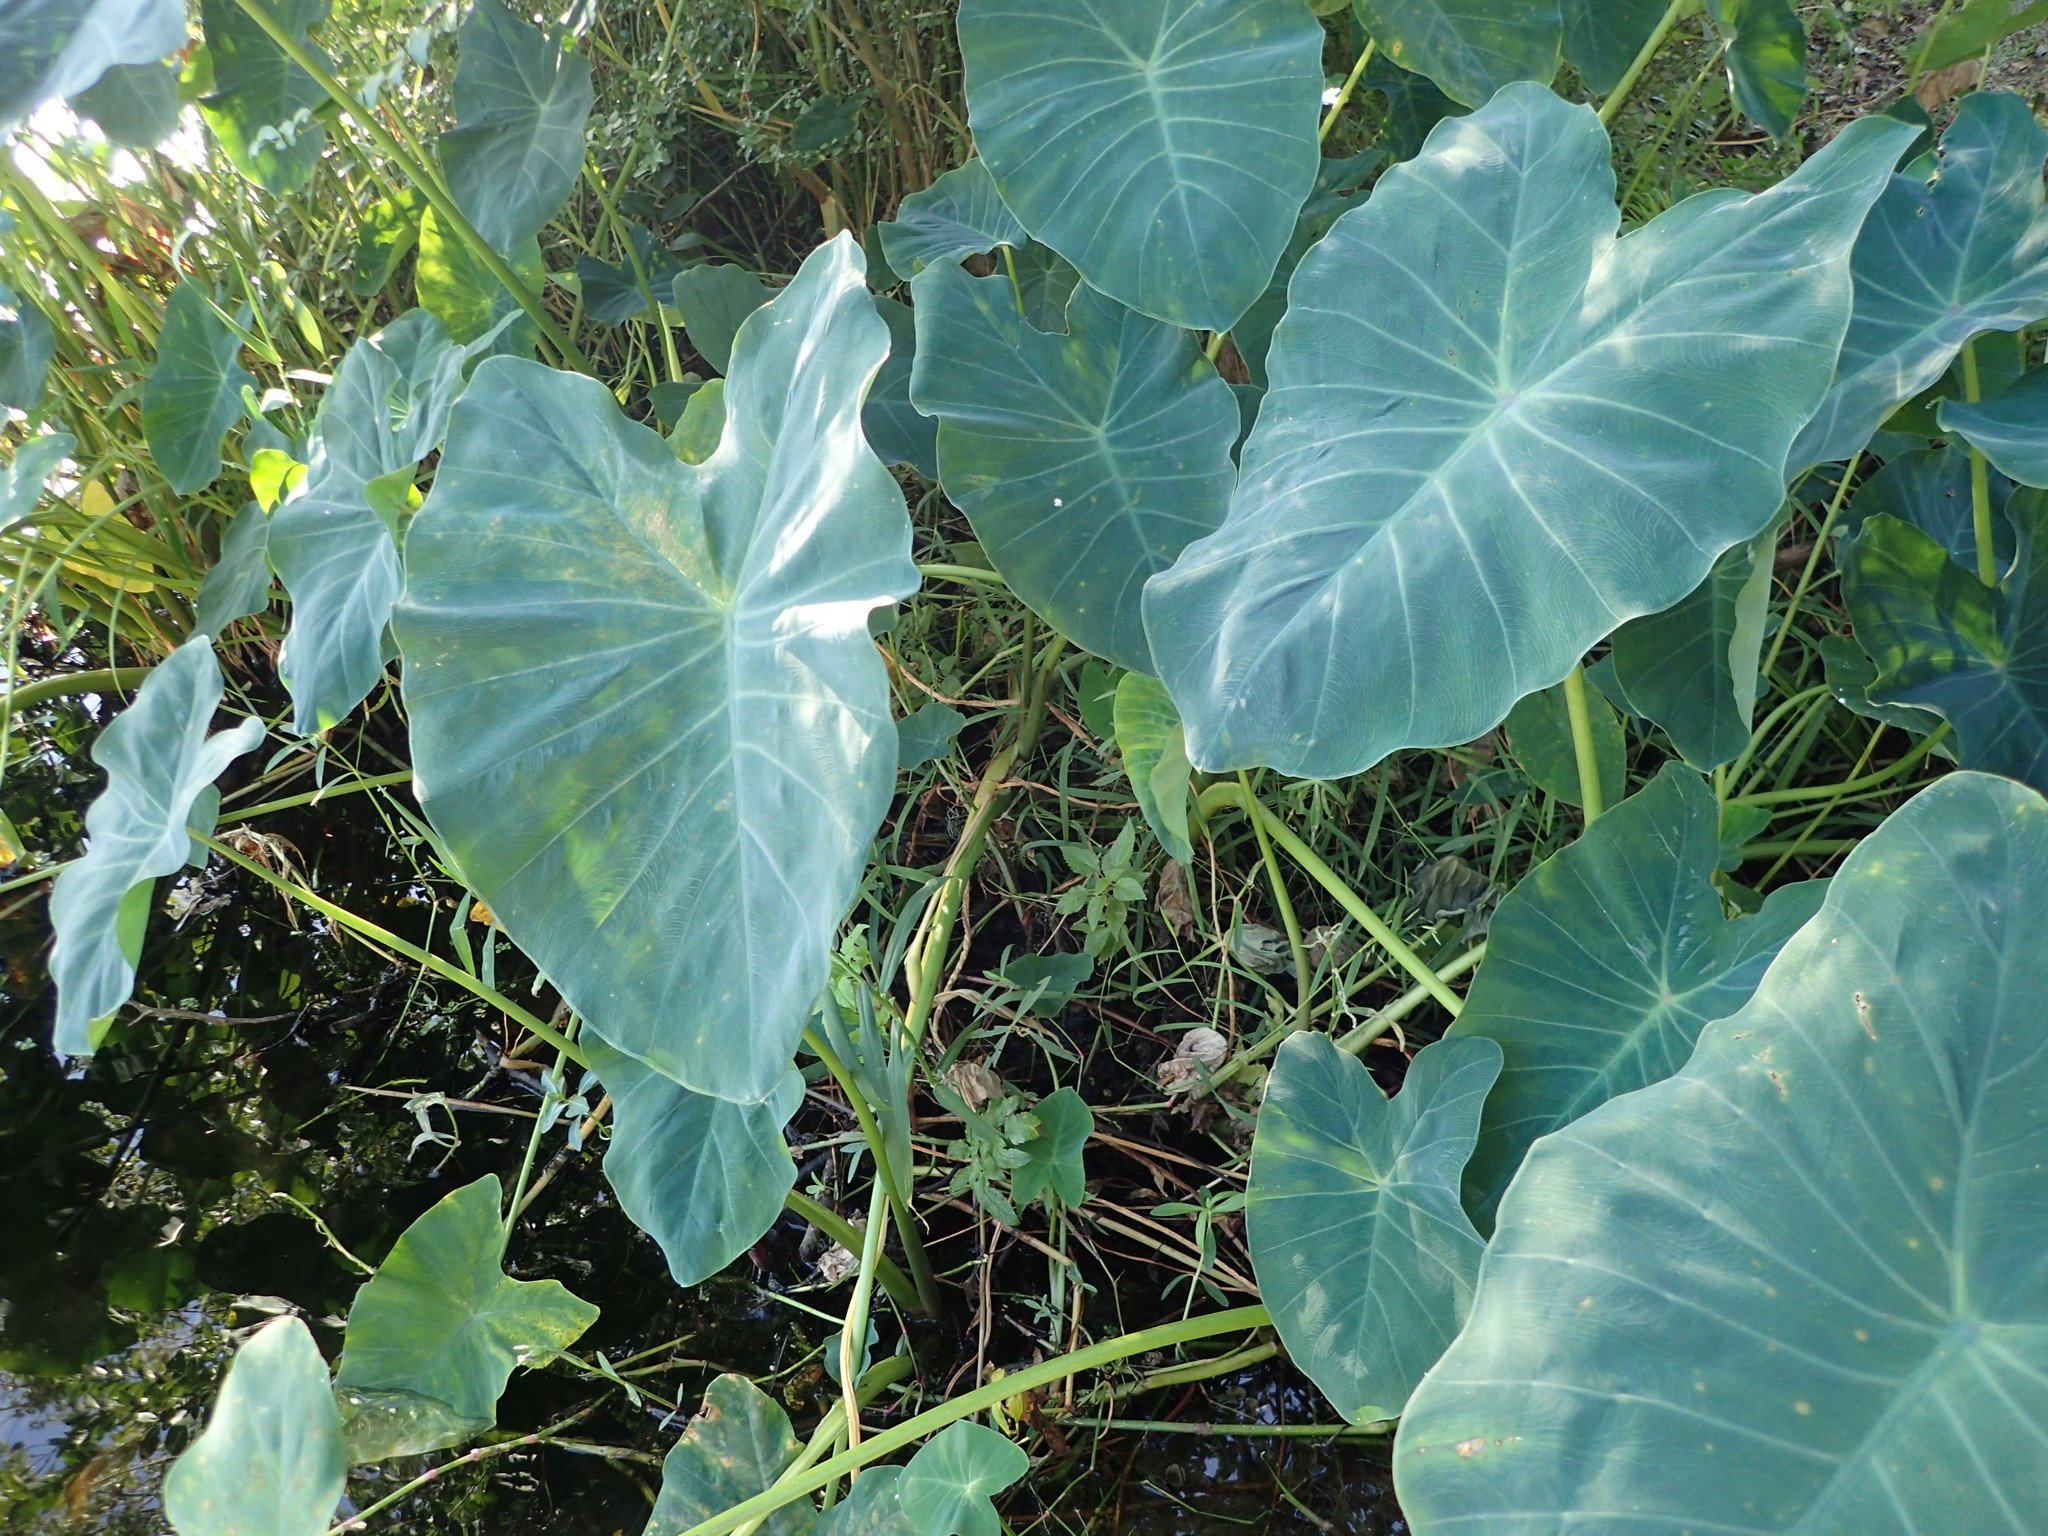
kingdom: Plantae
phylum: Tracheophyta
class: Liliopsida
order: Alismatales
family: Araceae
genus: Colocasia
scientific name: Colocasia esculenta
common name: Taro
